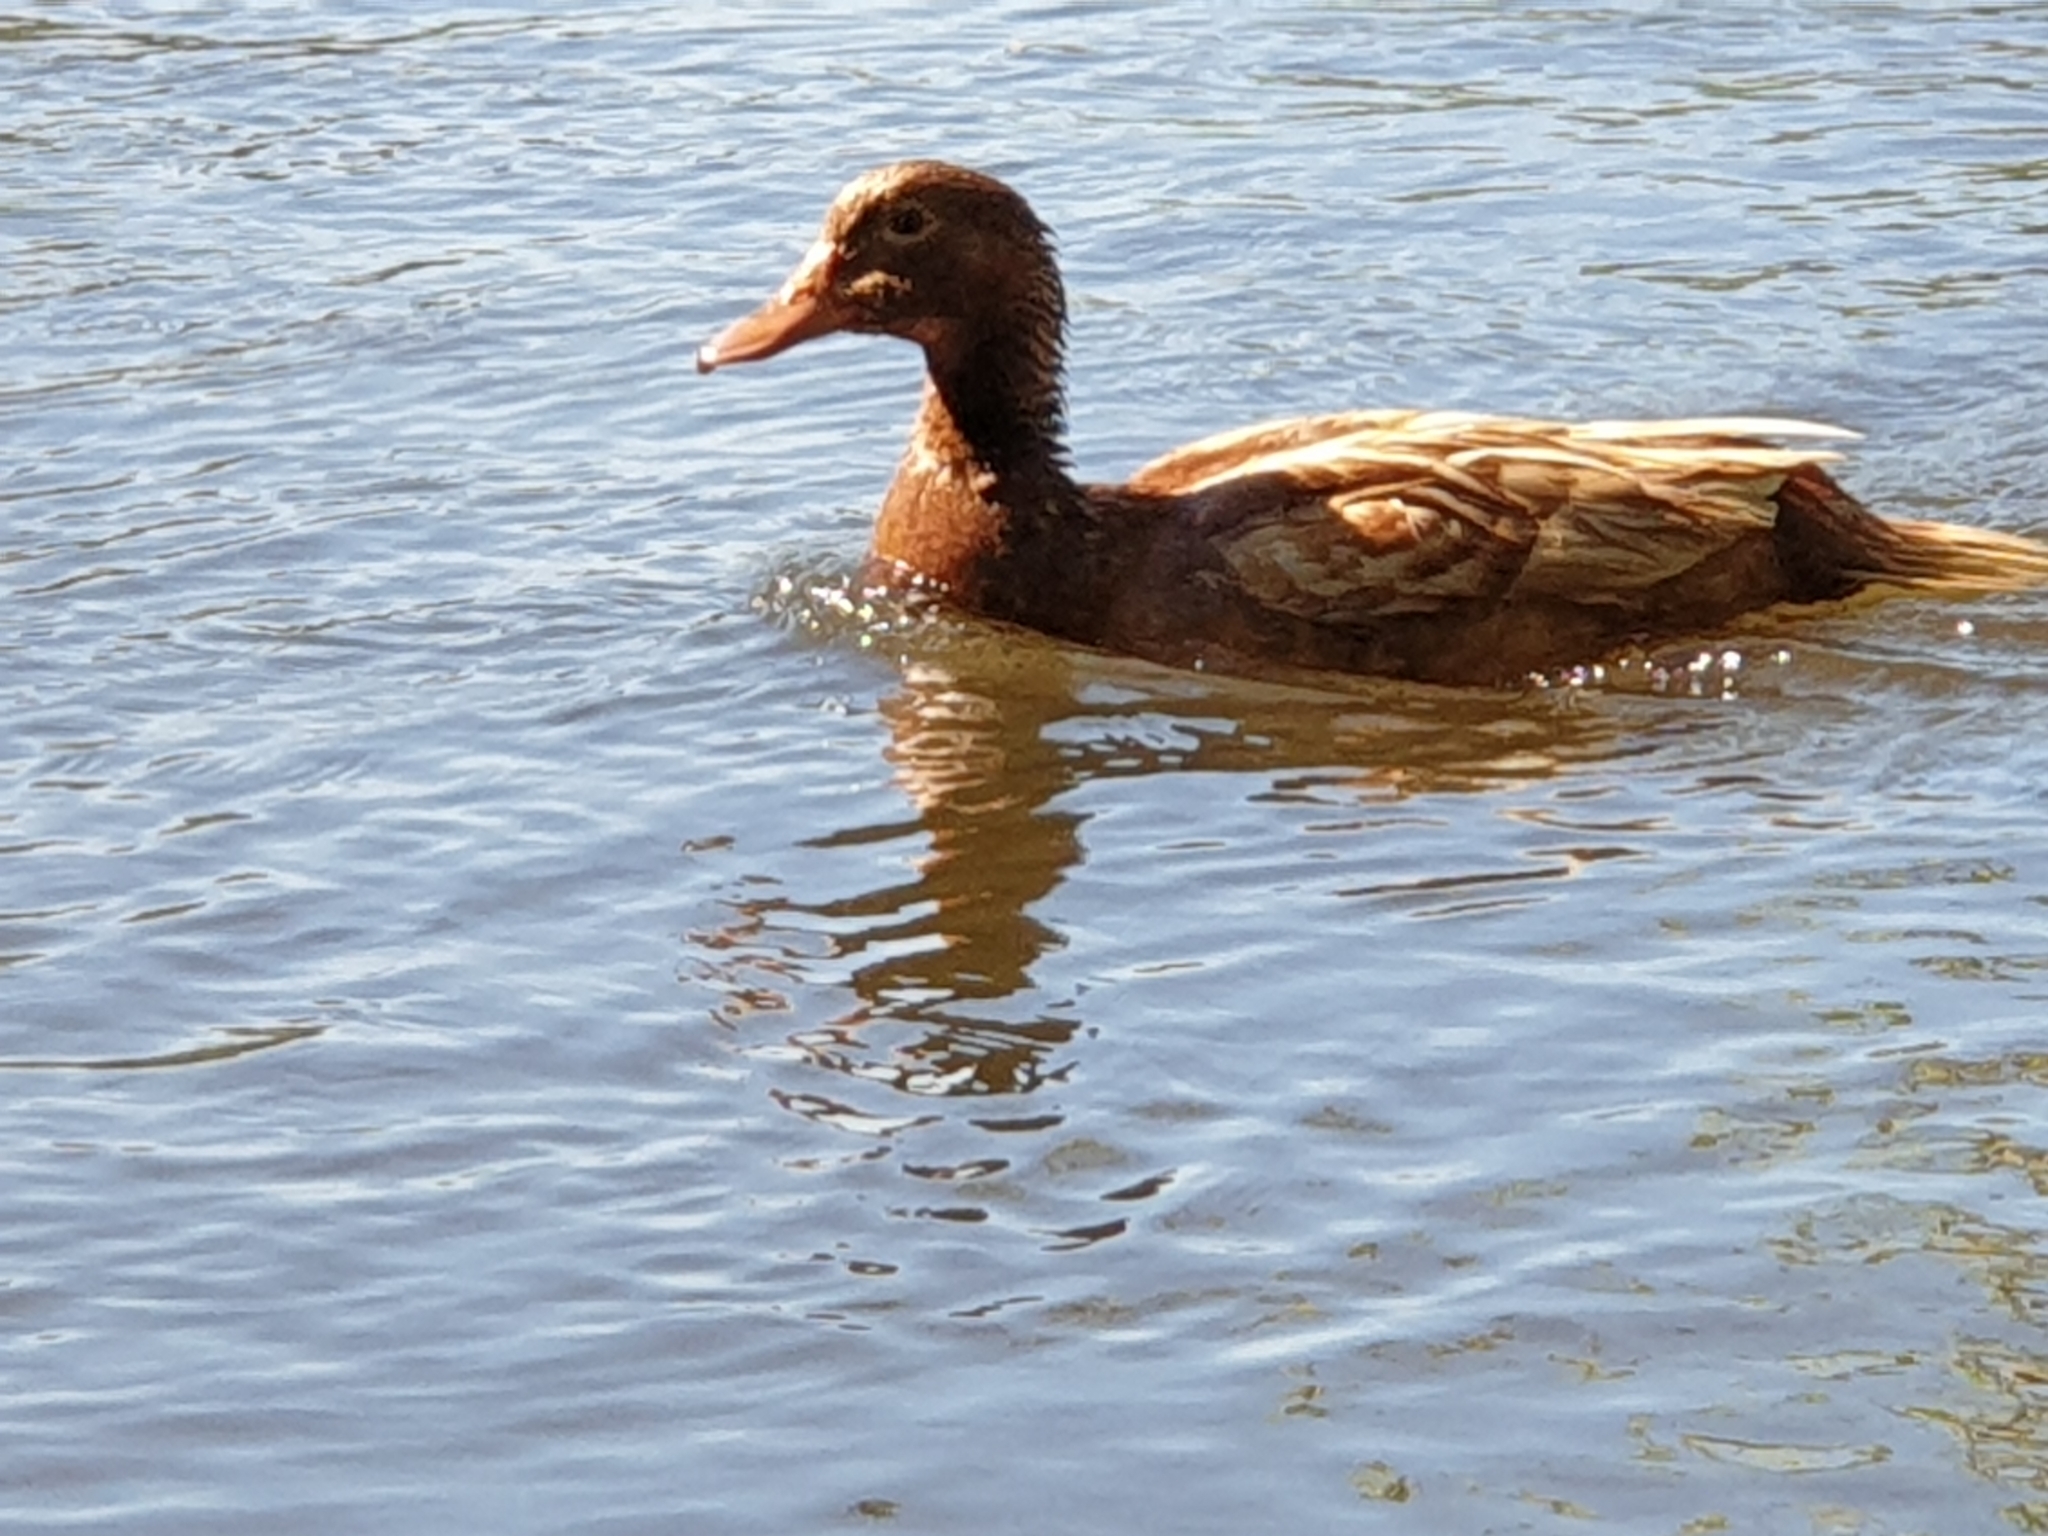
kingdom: Animalia
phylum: Chordata
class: Aves
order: Anseriformes
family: Anatidae
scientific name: Anatidae
